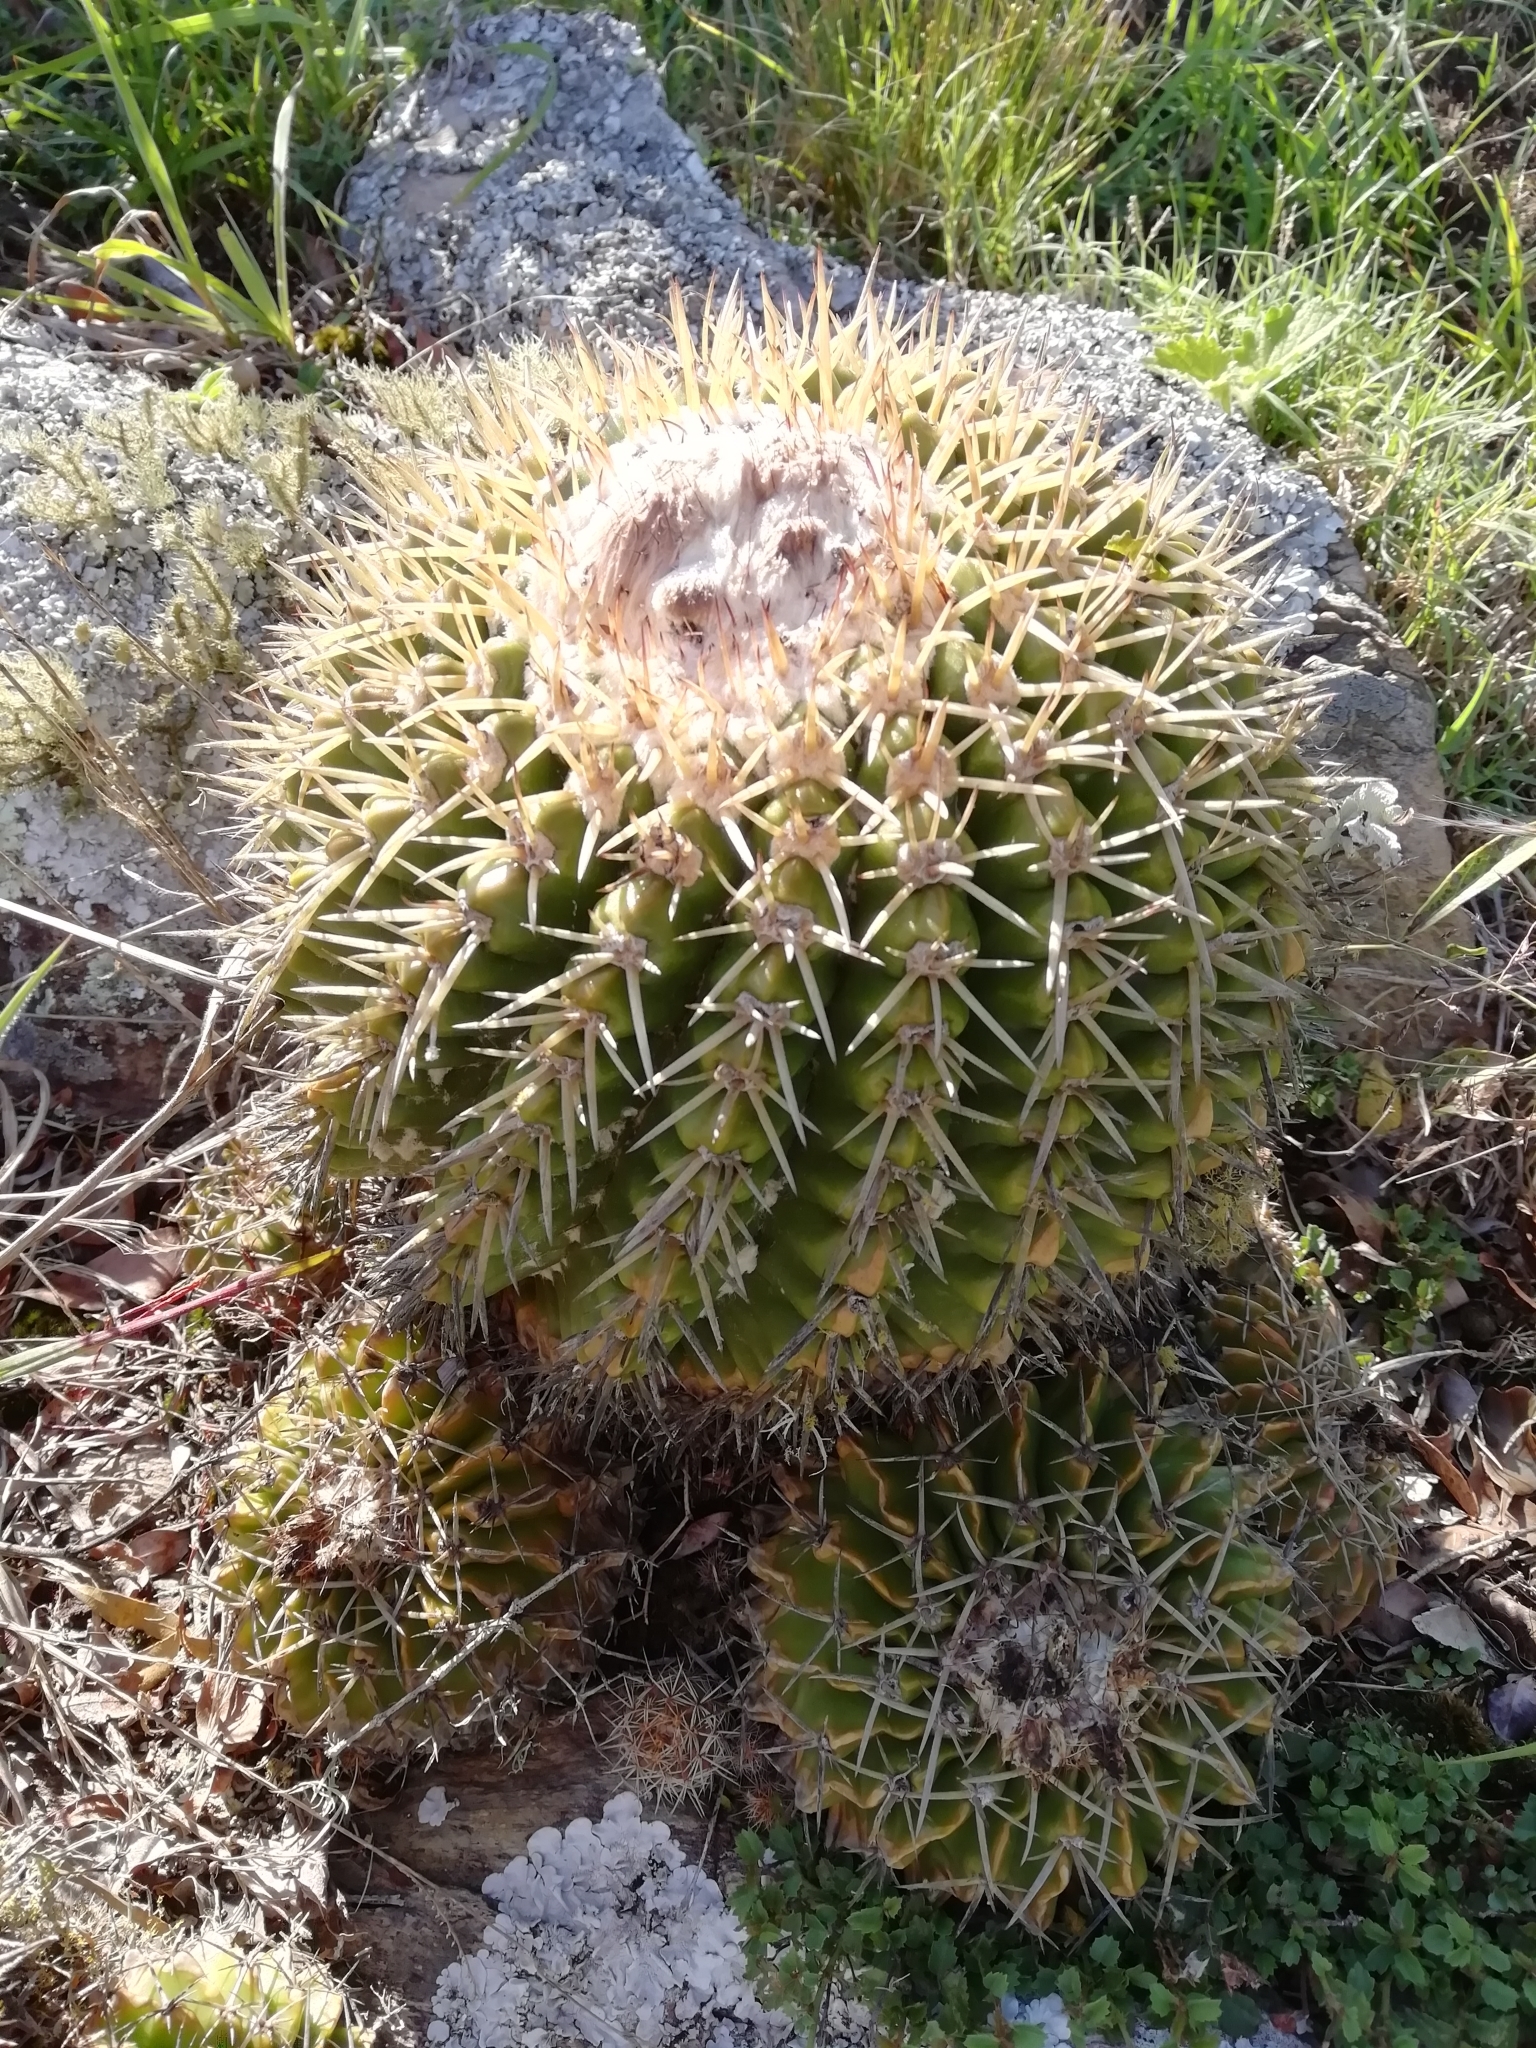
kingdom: Plantae
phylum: Tracheophyta
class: Magnoliopsida
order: Caryophyllales
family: Cactaceae
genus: Parodia
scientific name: Parodia erinacea
